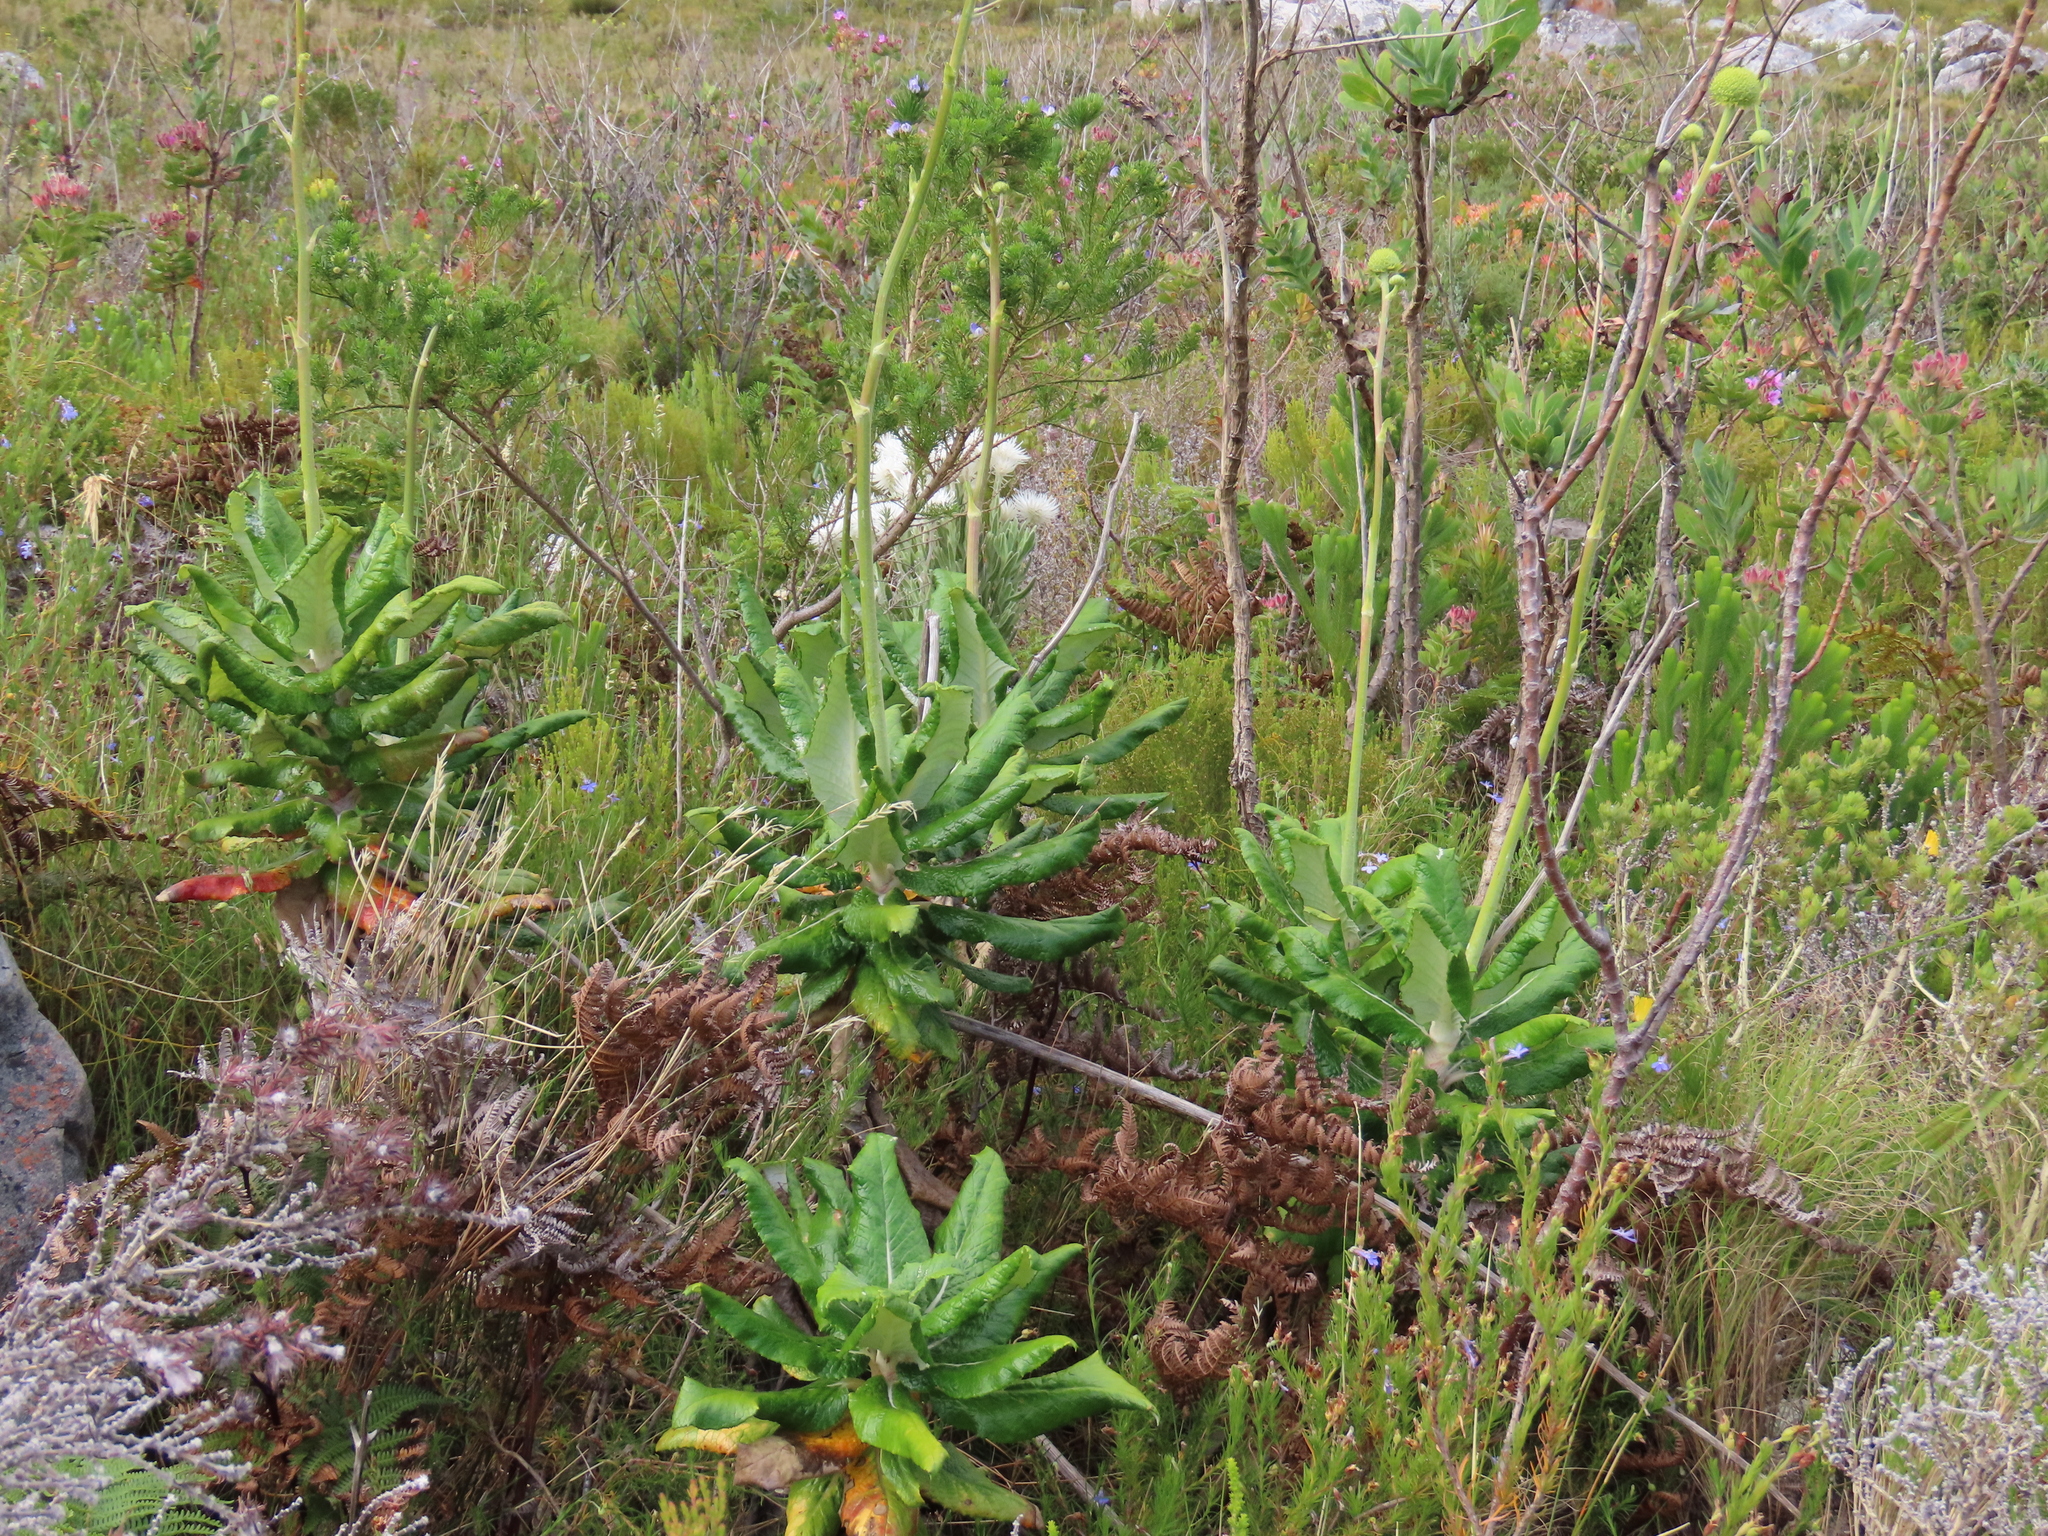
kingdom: Plantae
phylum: Tracheophyta
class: Magnoliopsida
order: Apiales
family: Apiaceae
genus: Hermas
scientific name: Hermas villosa
